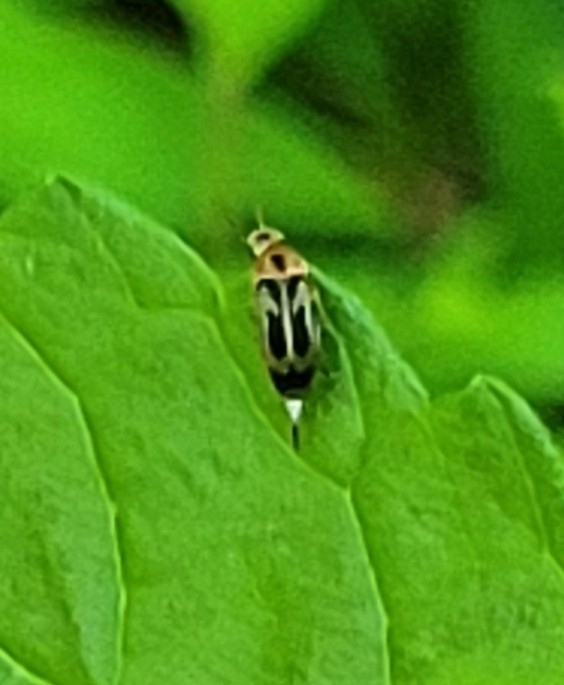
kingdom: Animalia
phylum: Arthropoda
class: Insecta
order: Coleoptera
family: Mordellidae
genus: Falsomordellistena
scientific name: Falsomordellistena hebraica
